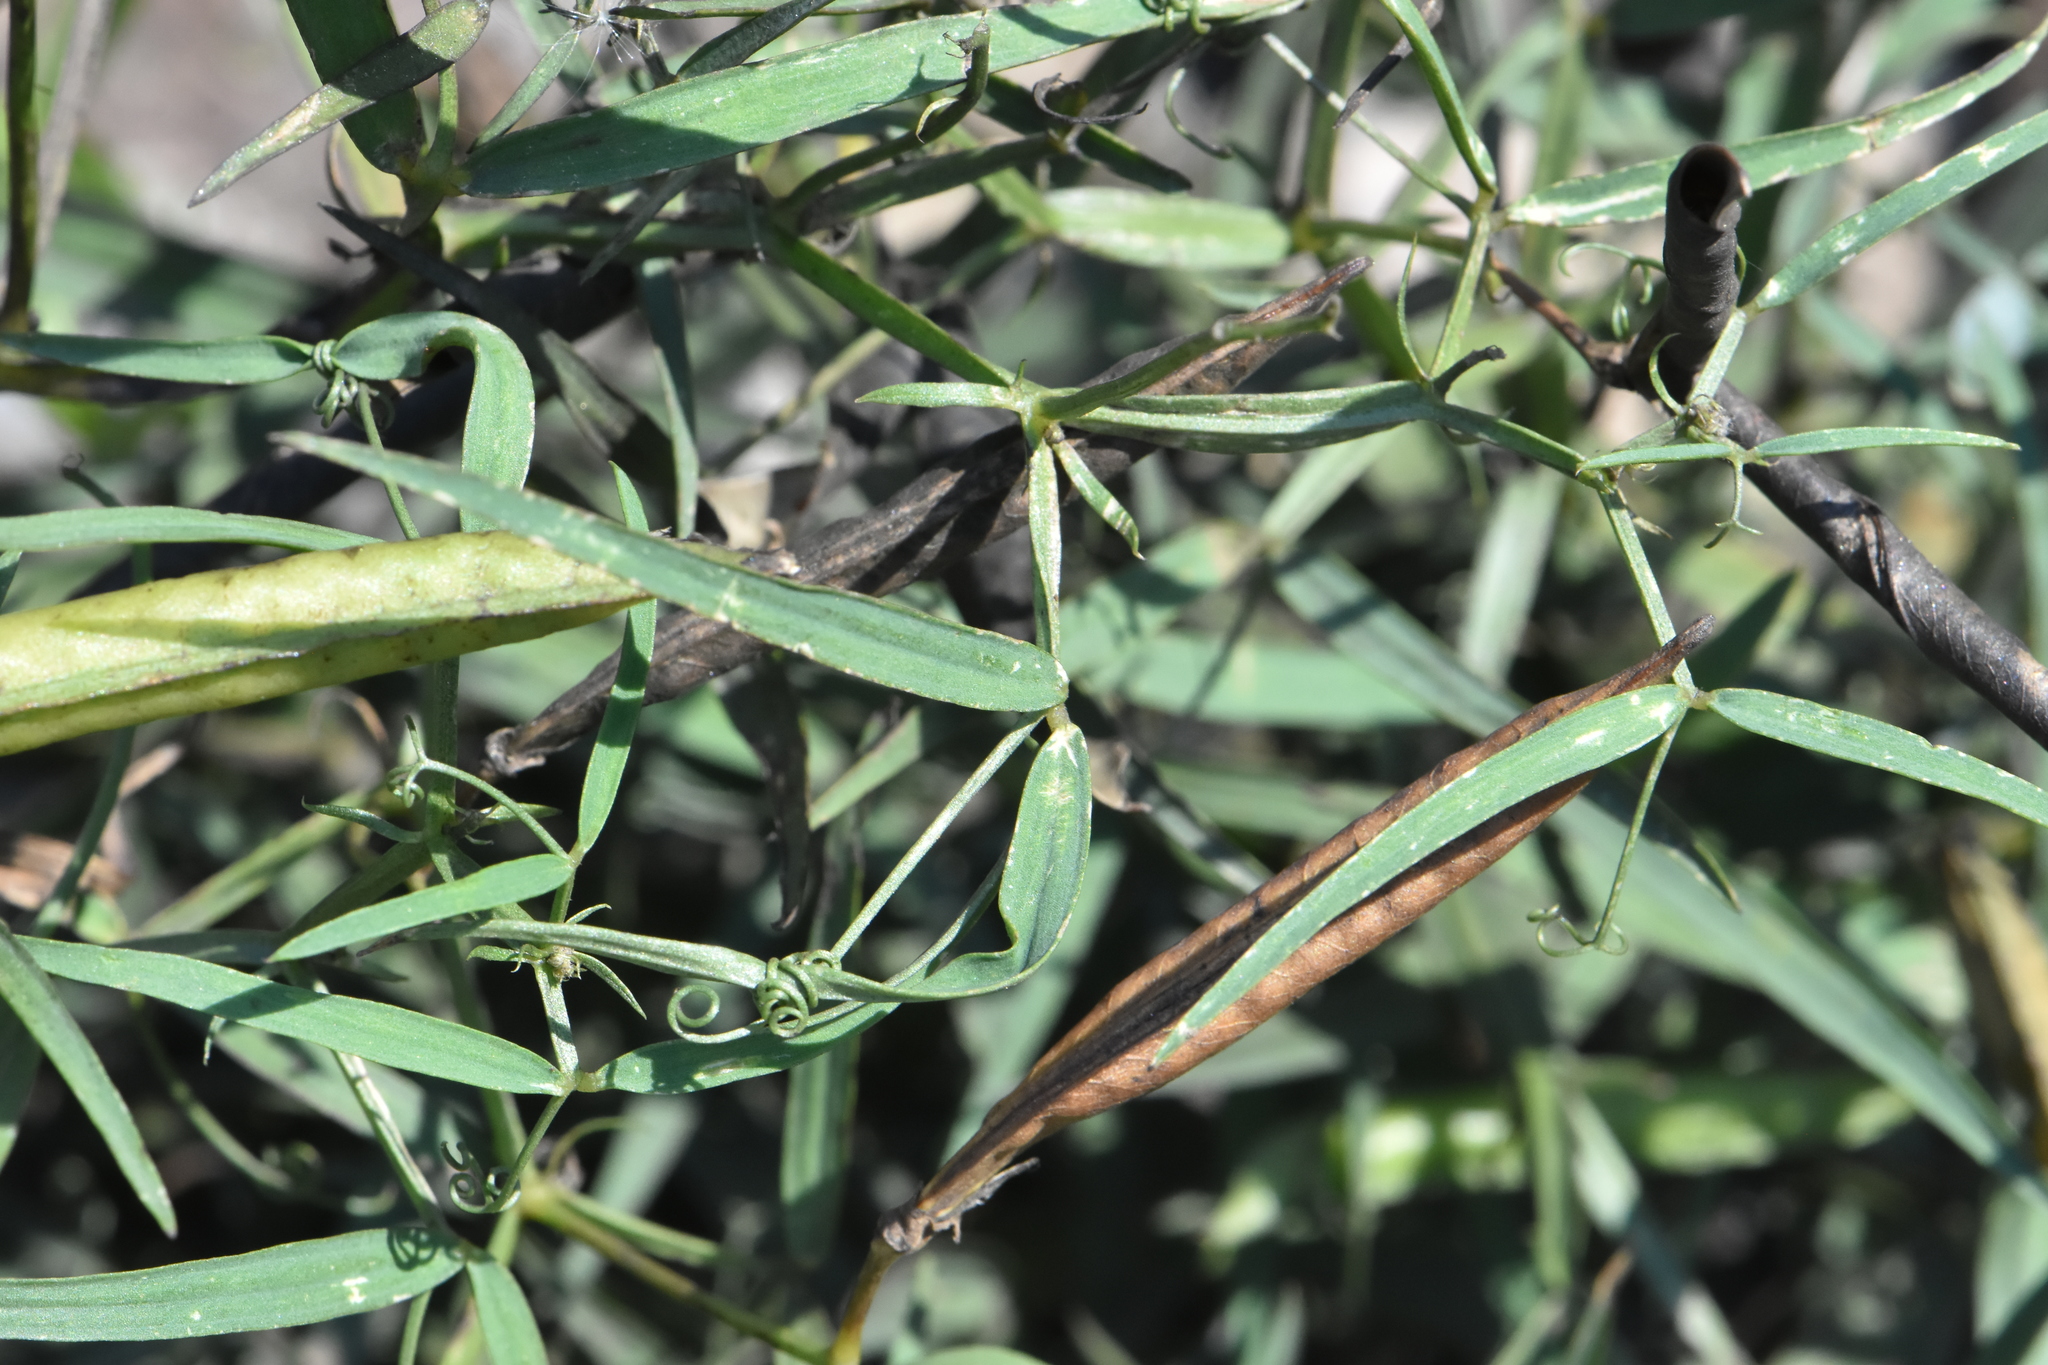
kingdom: Plantae
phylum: Tracheophyta
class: Magnoliopsida
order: Fabales
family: Fabaceae
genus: Lathyrus
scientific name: Lathyrus sylvestris
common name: Flat pea
